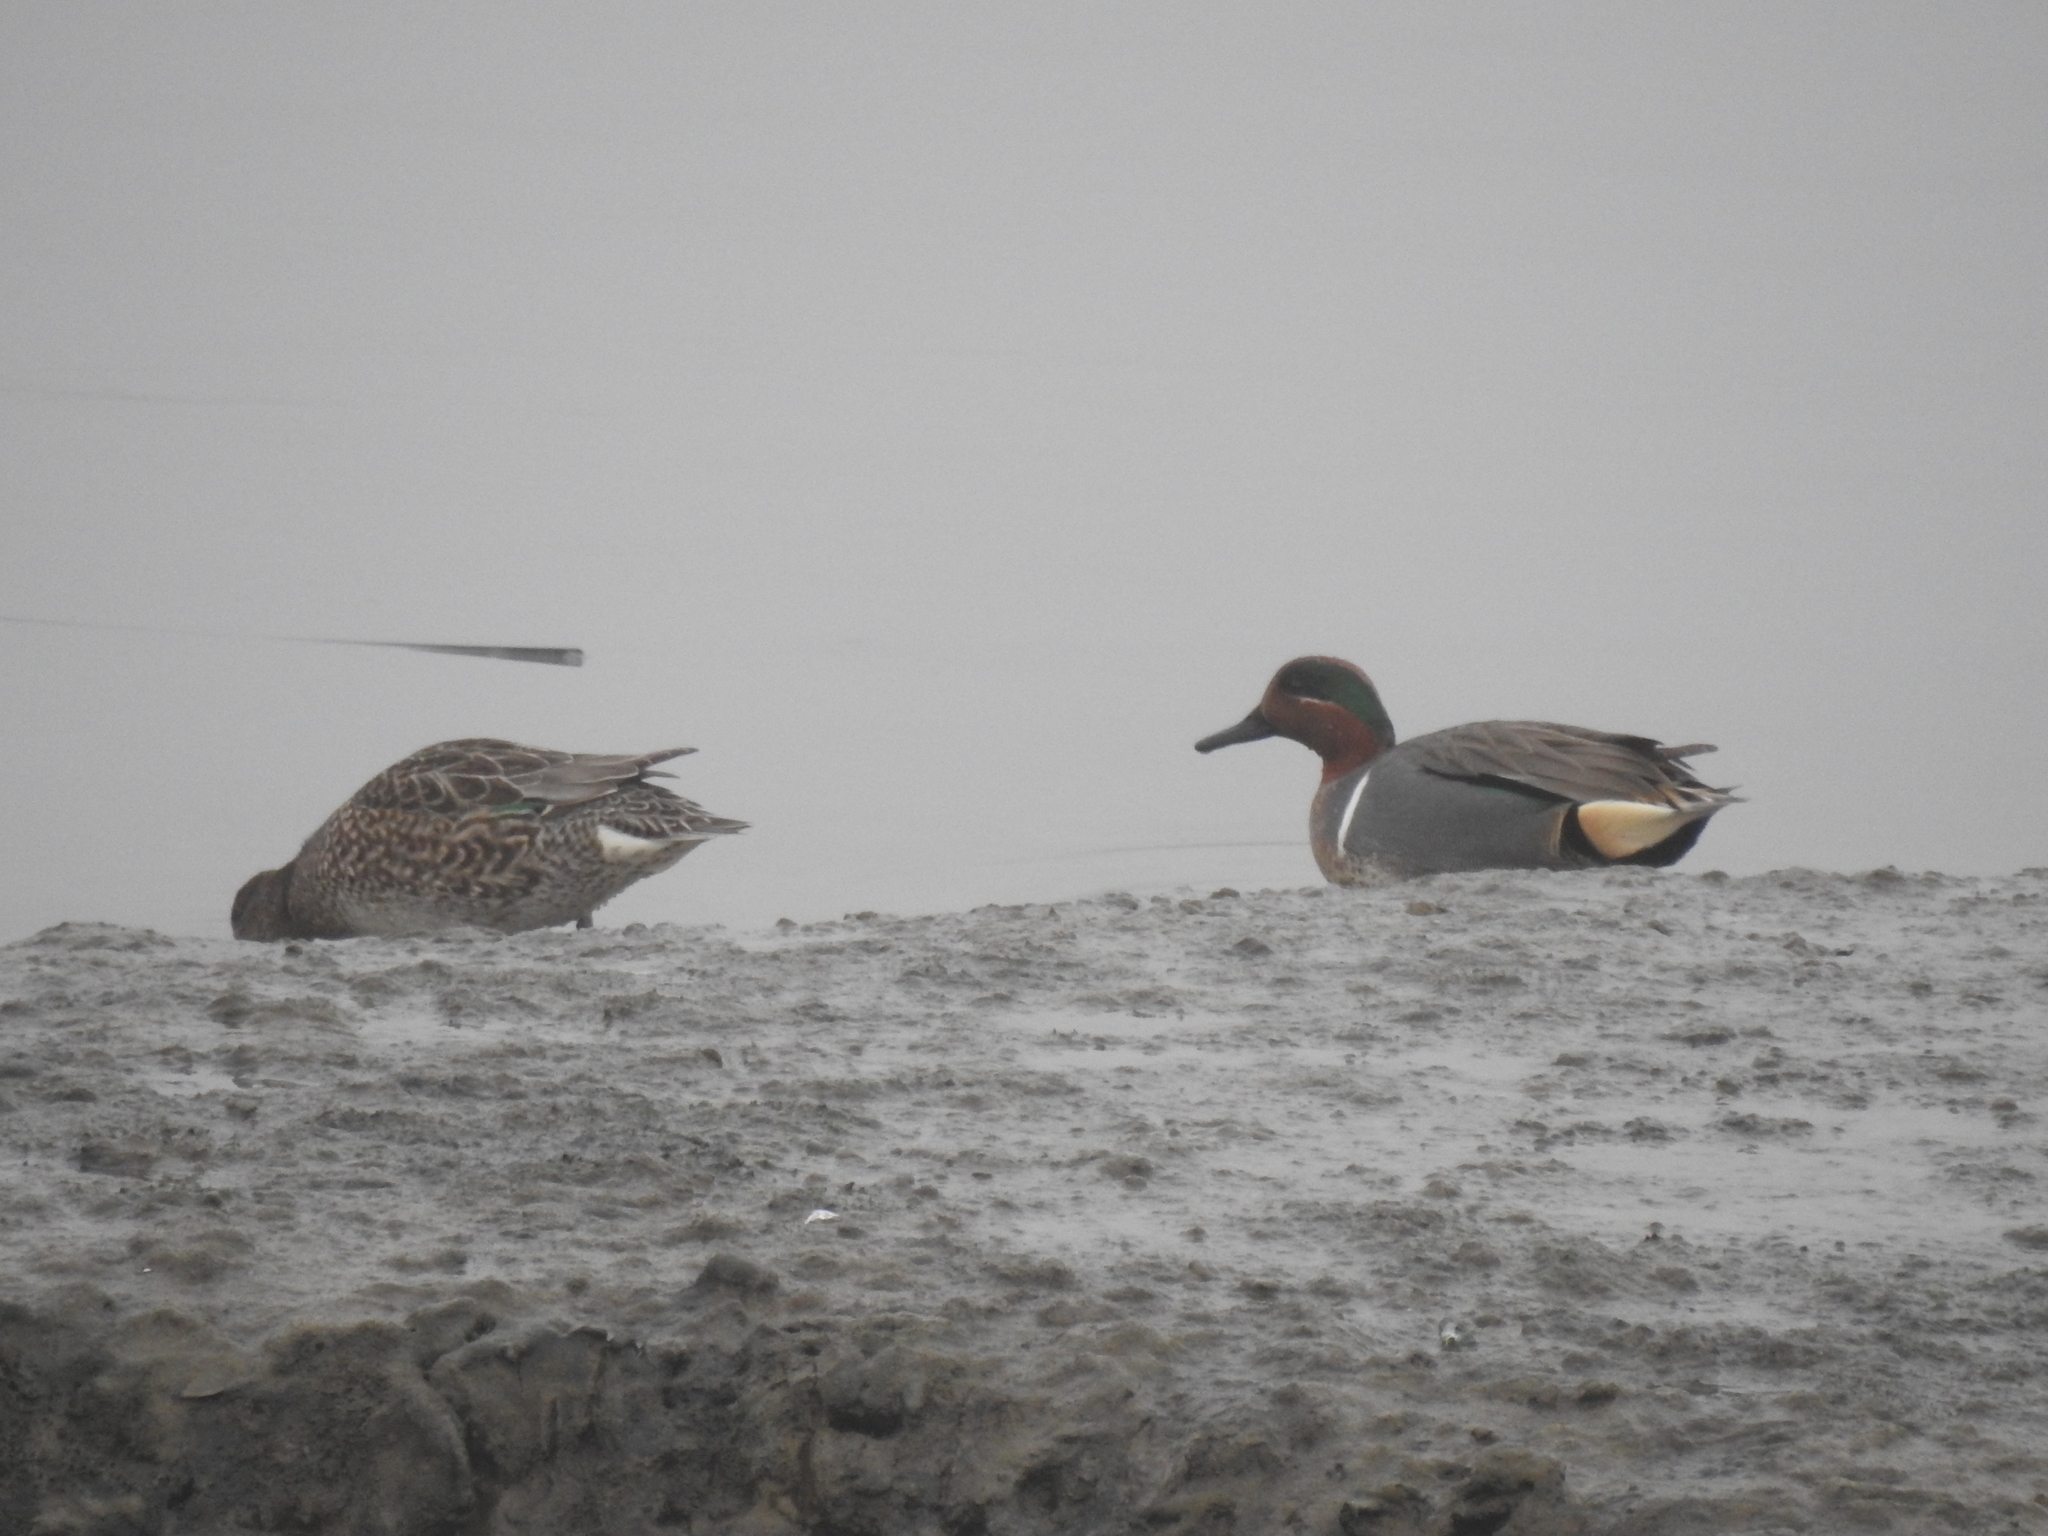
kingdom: Animalia
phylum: Chordata
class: Aves
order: Anseriformes
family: Anatidae
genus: Anas
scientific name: Anas crecca
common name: Eurasian teal
